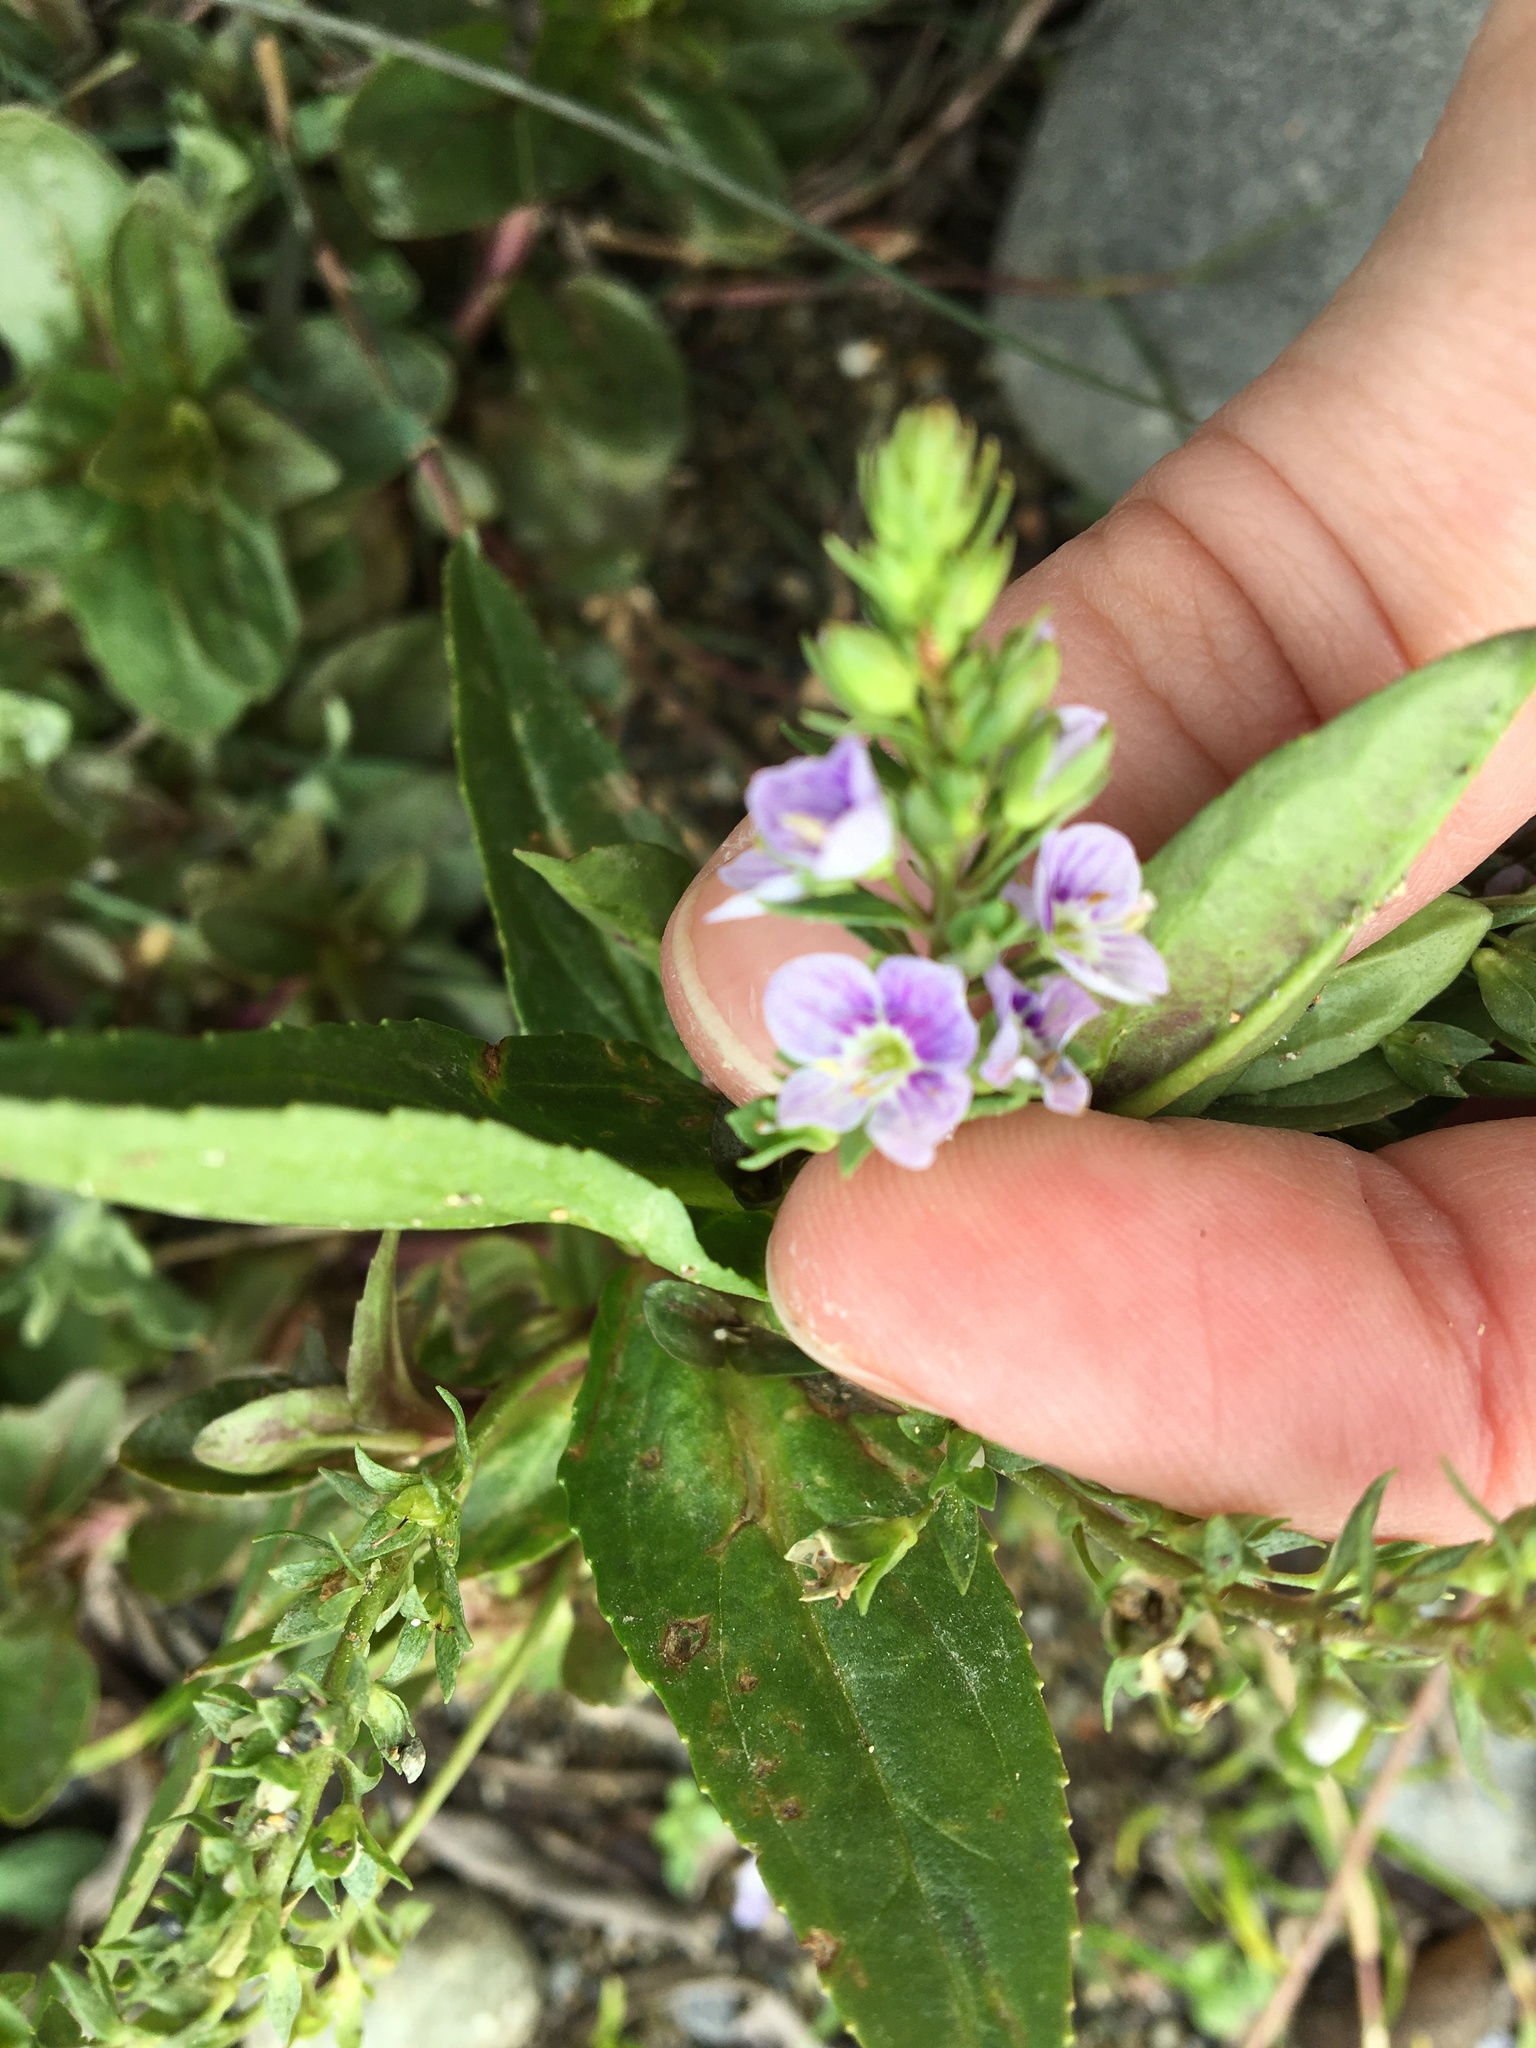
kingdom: Plantae
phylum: Tracheophyta
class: Magnoliopsida
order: Lamiales
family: Plantaginaceae
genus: Veronica
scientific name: Veronica anagallis-aquatica
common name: Water speedwell
